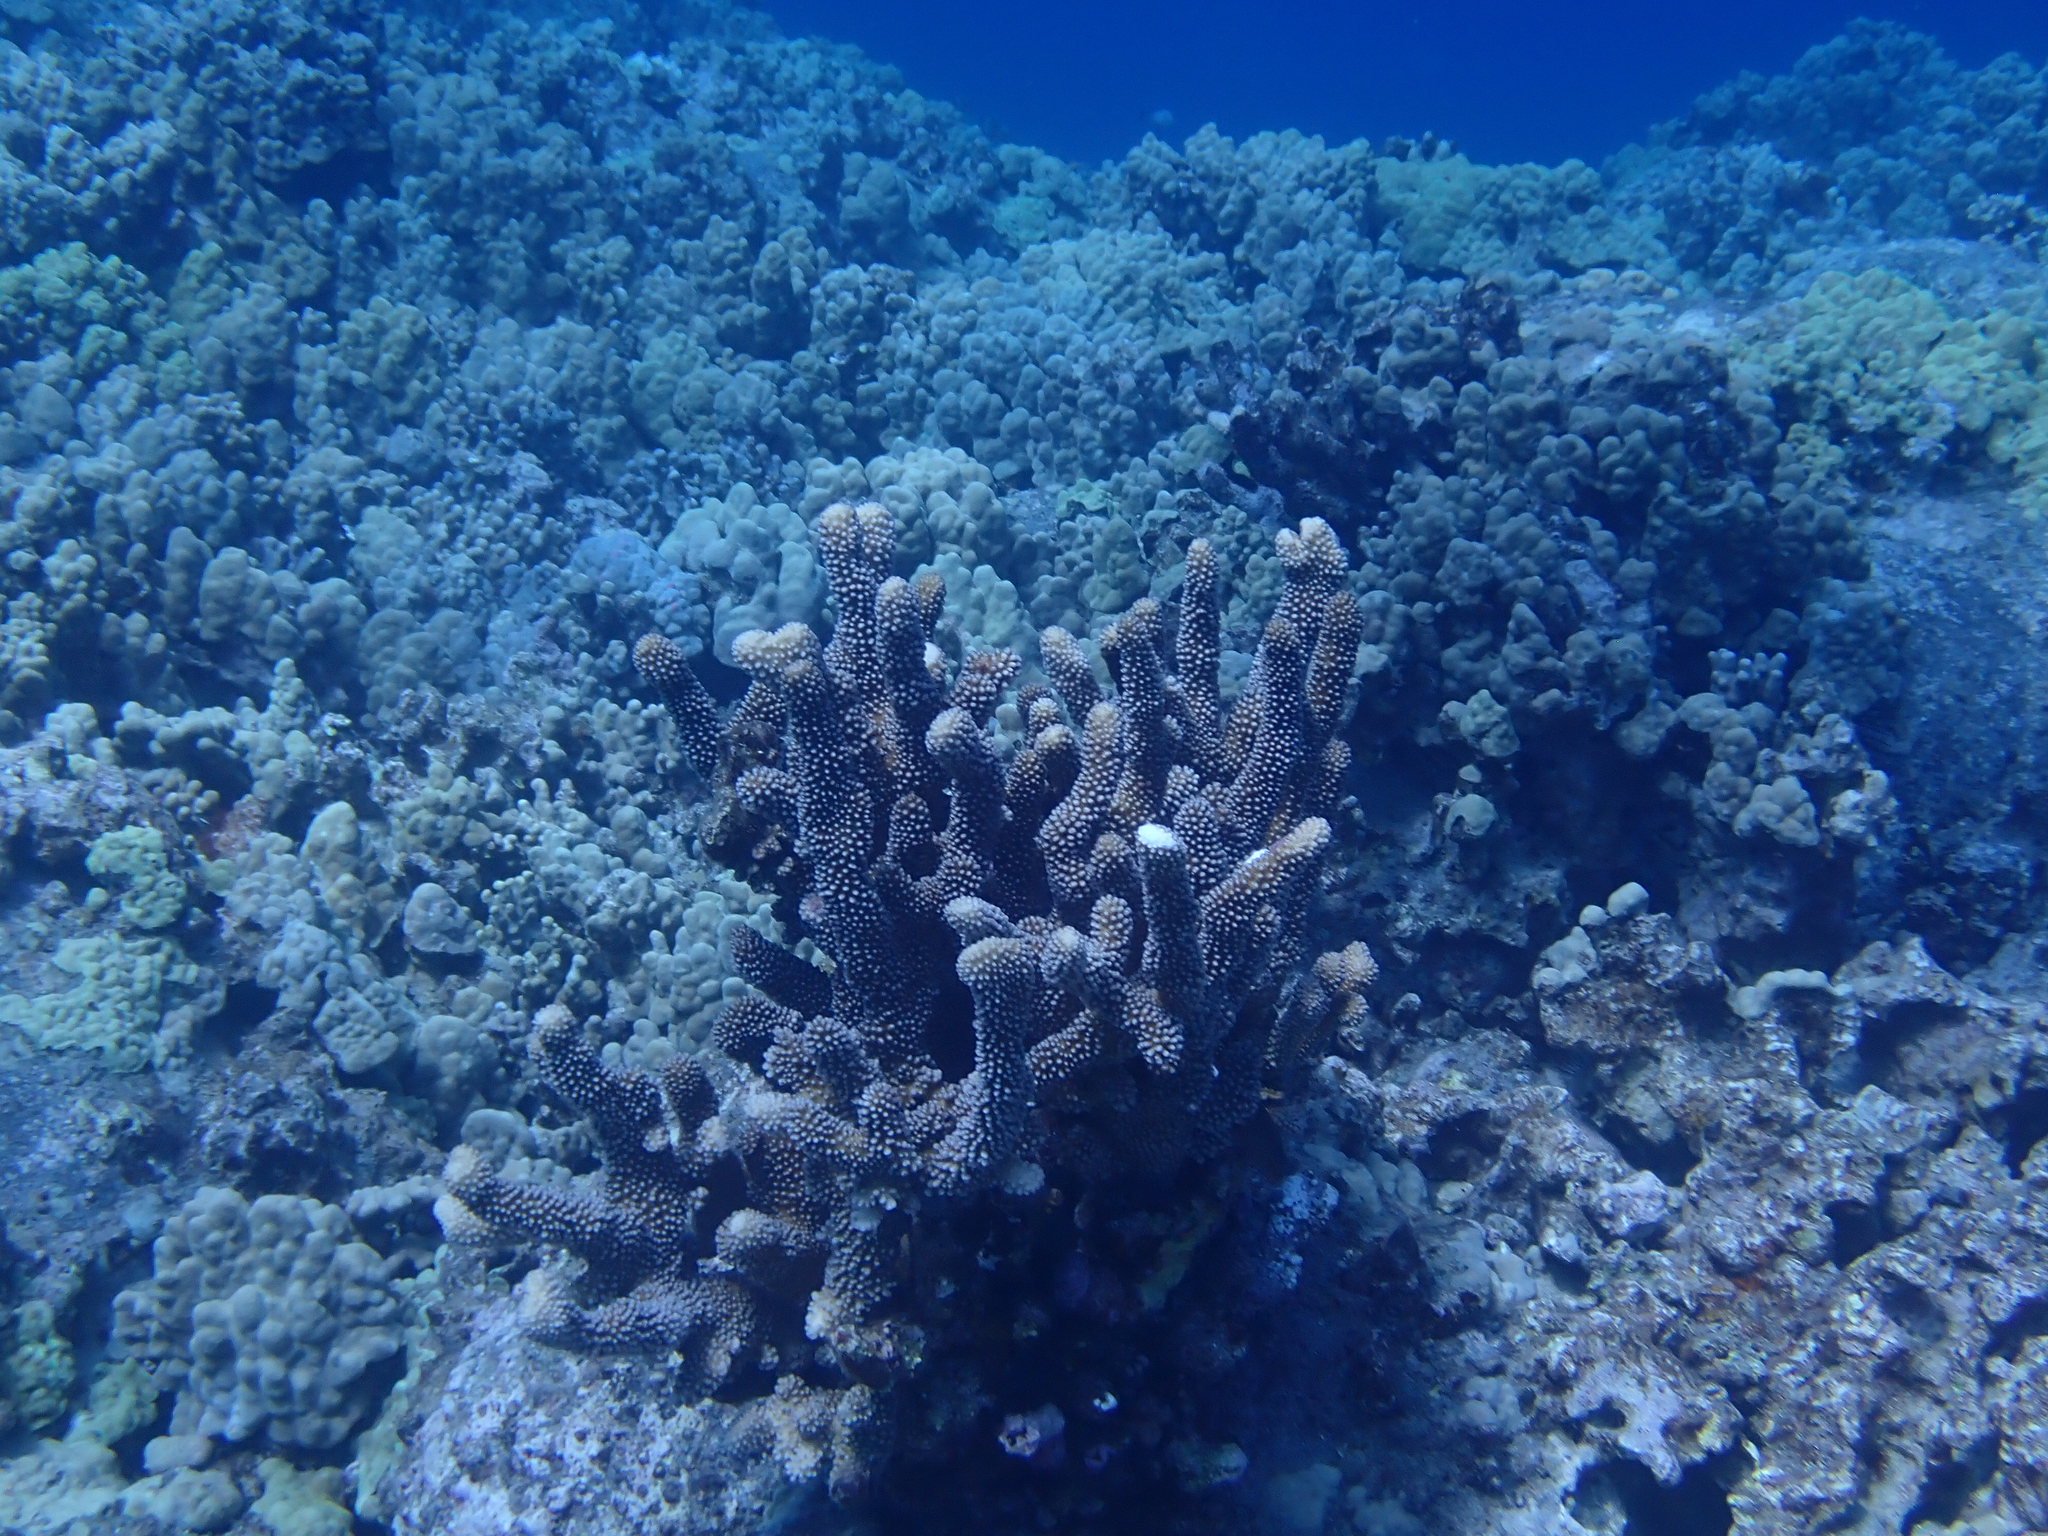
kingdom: Animalia
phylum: Cnidaria
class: Anthozoa
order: Scleractinia
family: Pocilloporidae
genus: Pocillopora
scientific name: Pocillopora grandis
